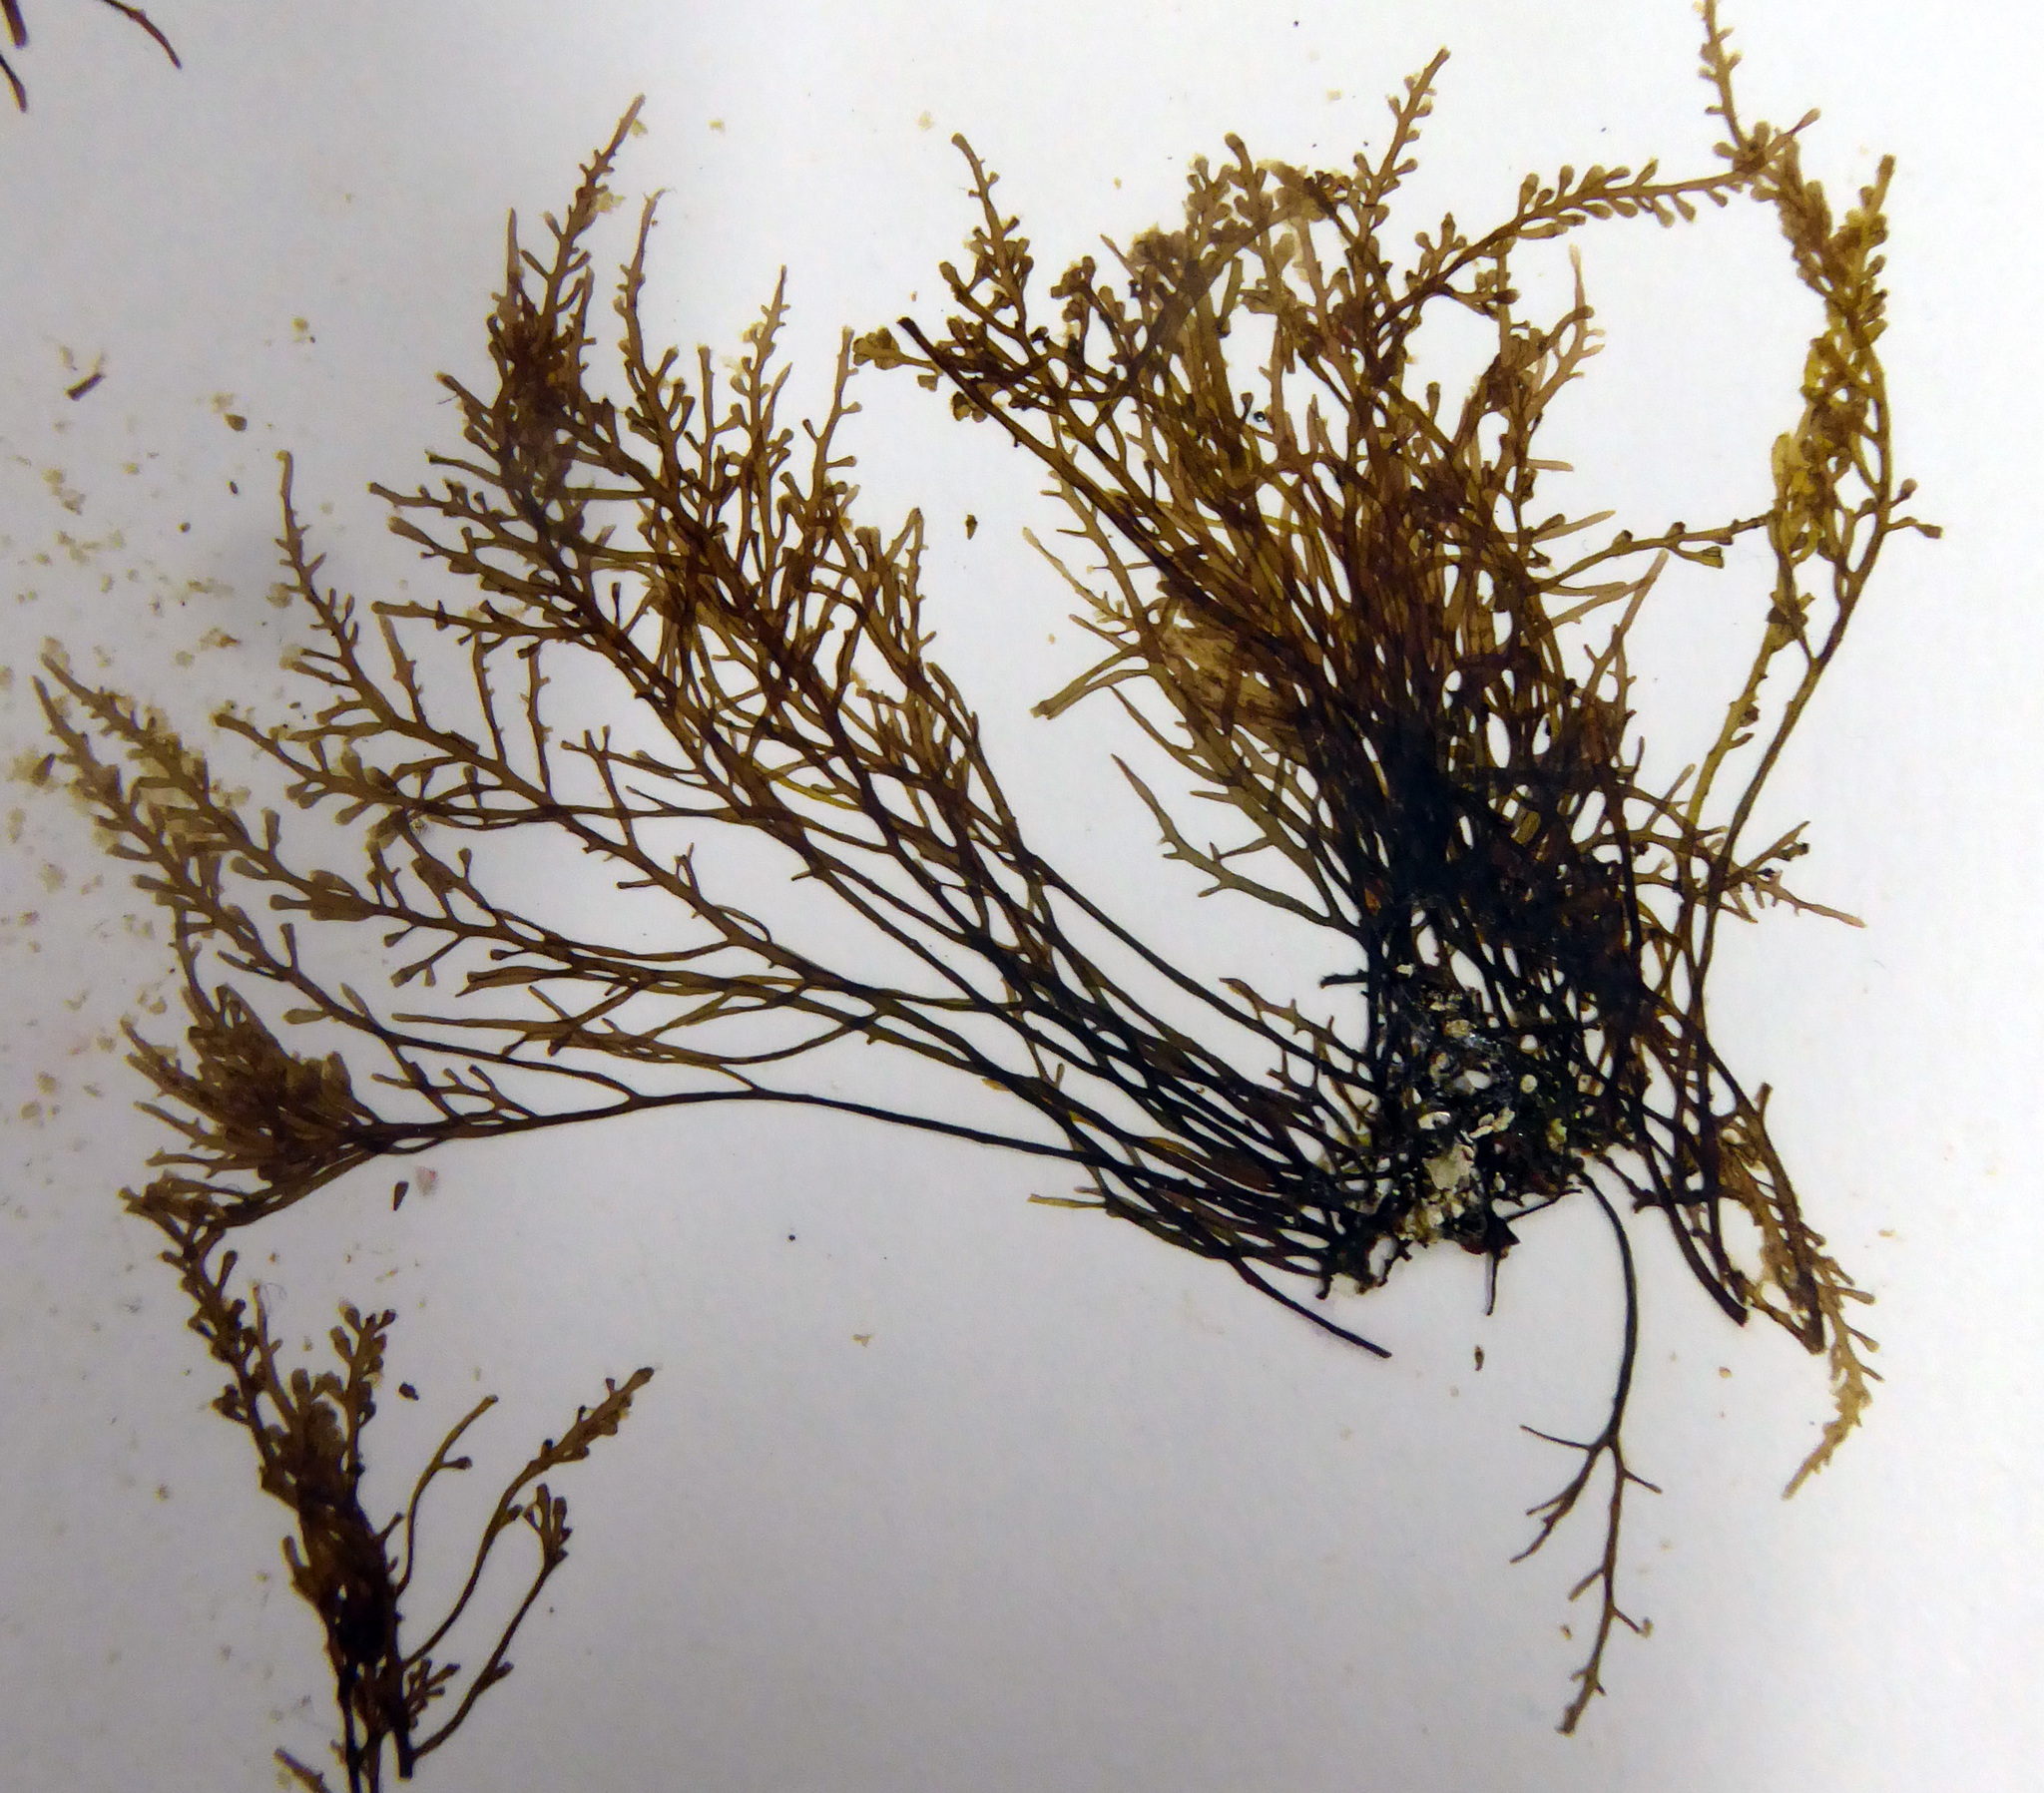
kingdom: Plantae
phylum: Rhodophyta
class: Florideophyceae
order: Ceramiales
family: Rhodomelaceae
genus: Chondria
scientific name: Chondria macrocarpa
